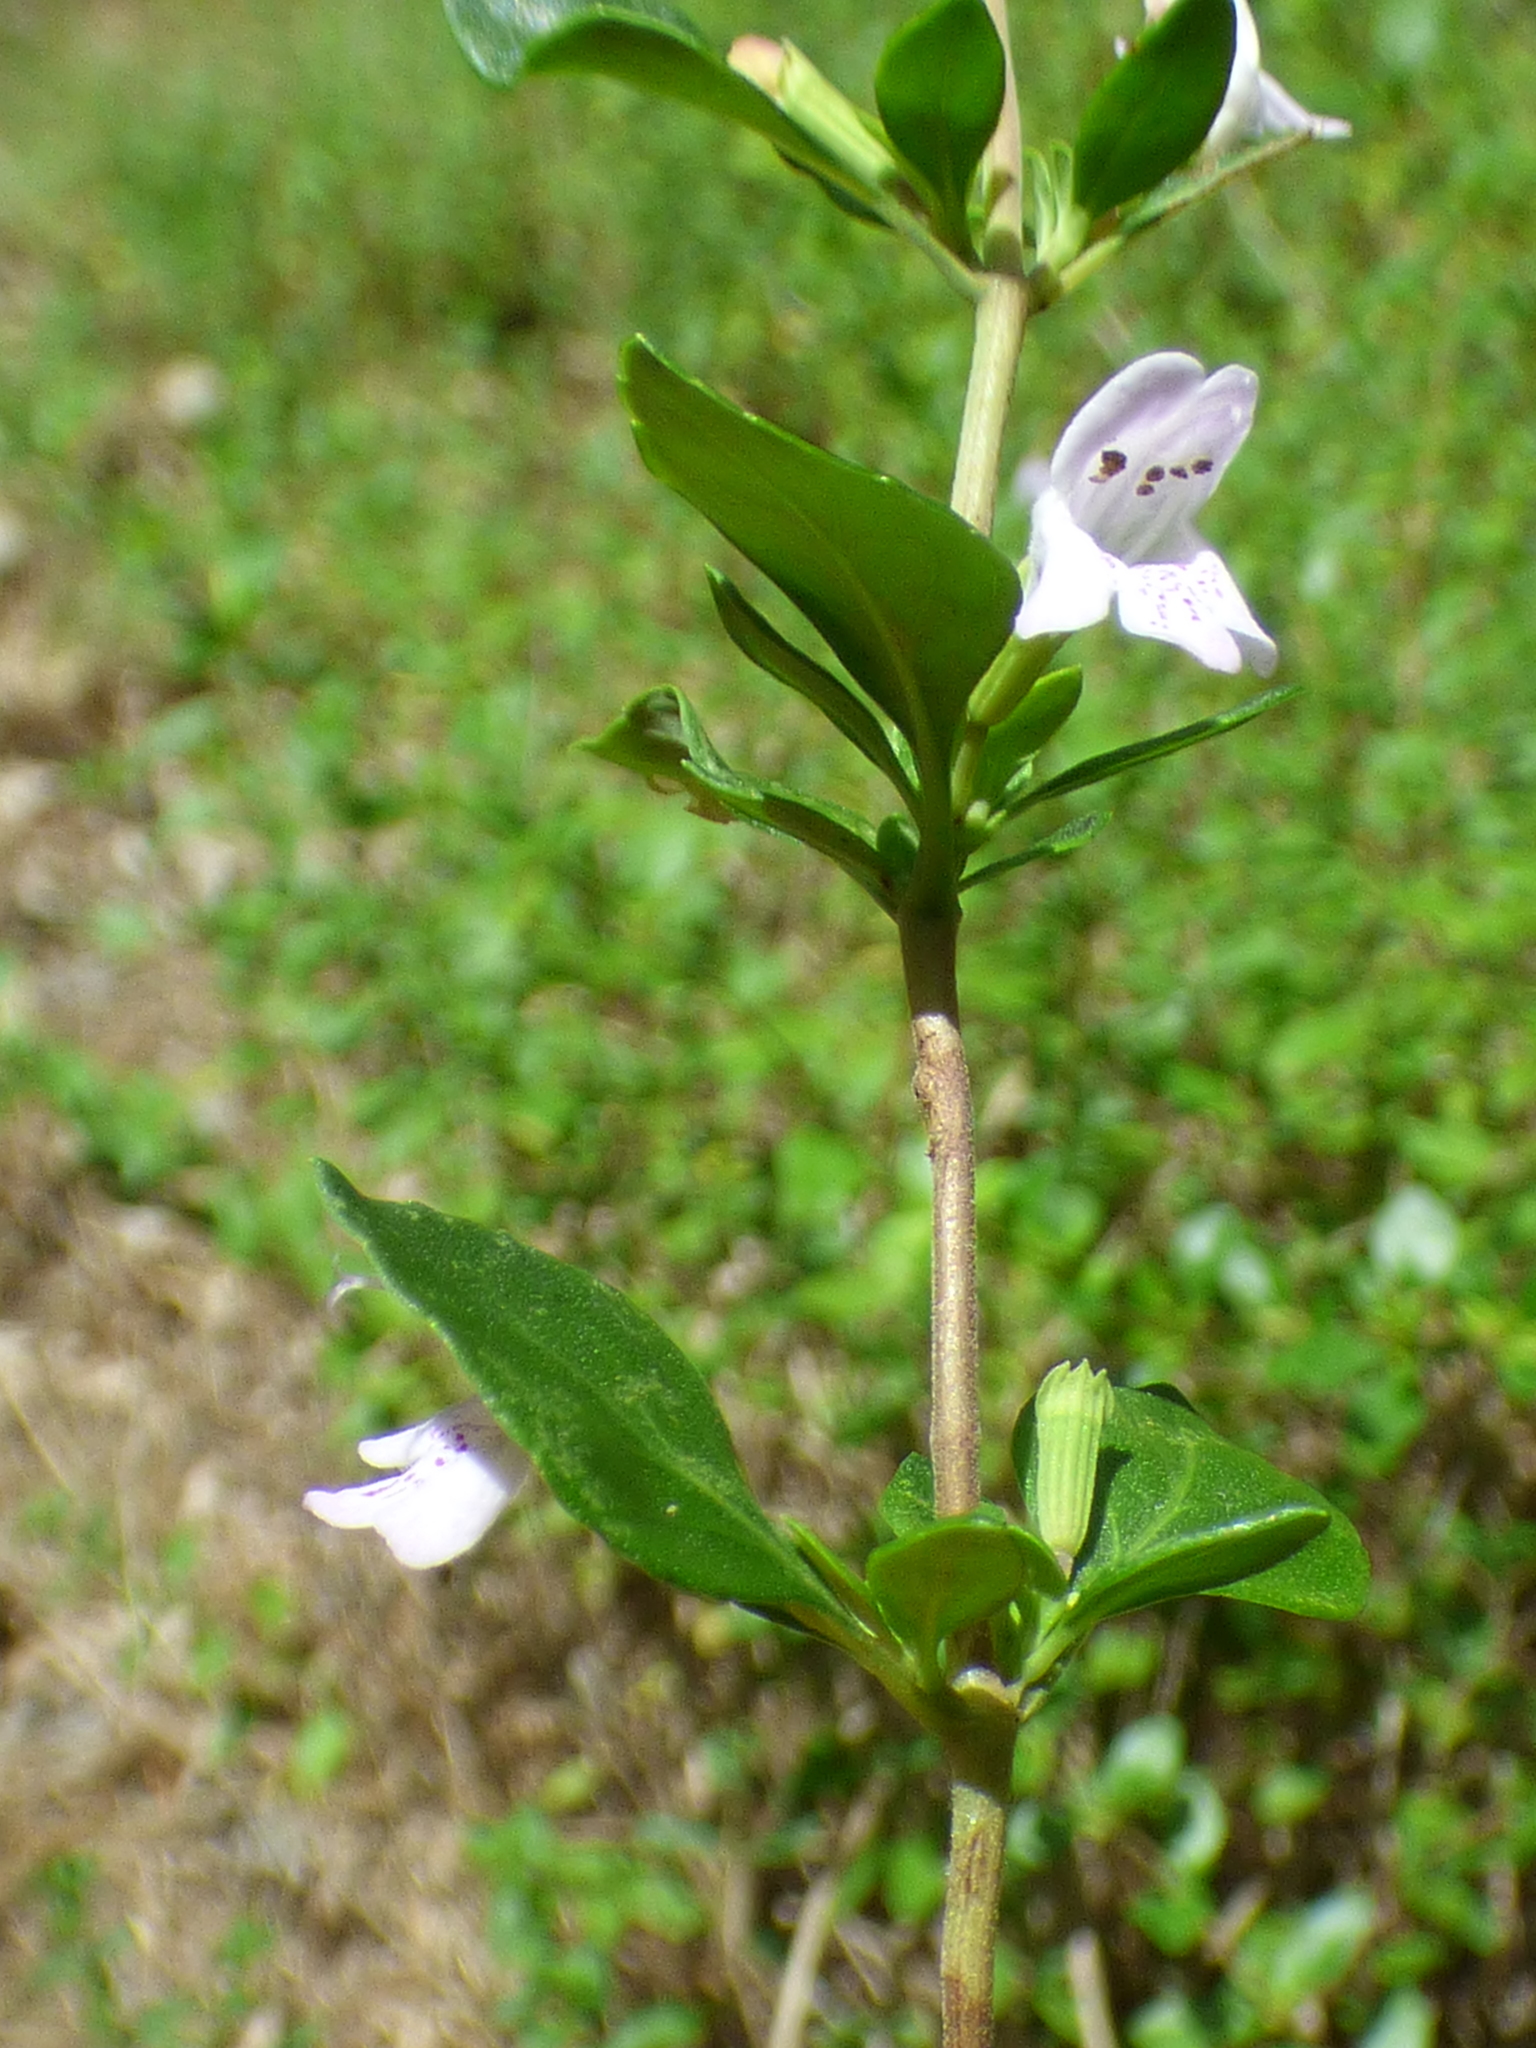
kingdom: Plantae
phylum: Tracheophyta
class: Magnoliopsida
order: Lamiales
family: Lamiaceae
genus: Clinopodium
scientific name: Clinopodium carolinianum
